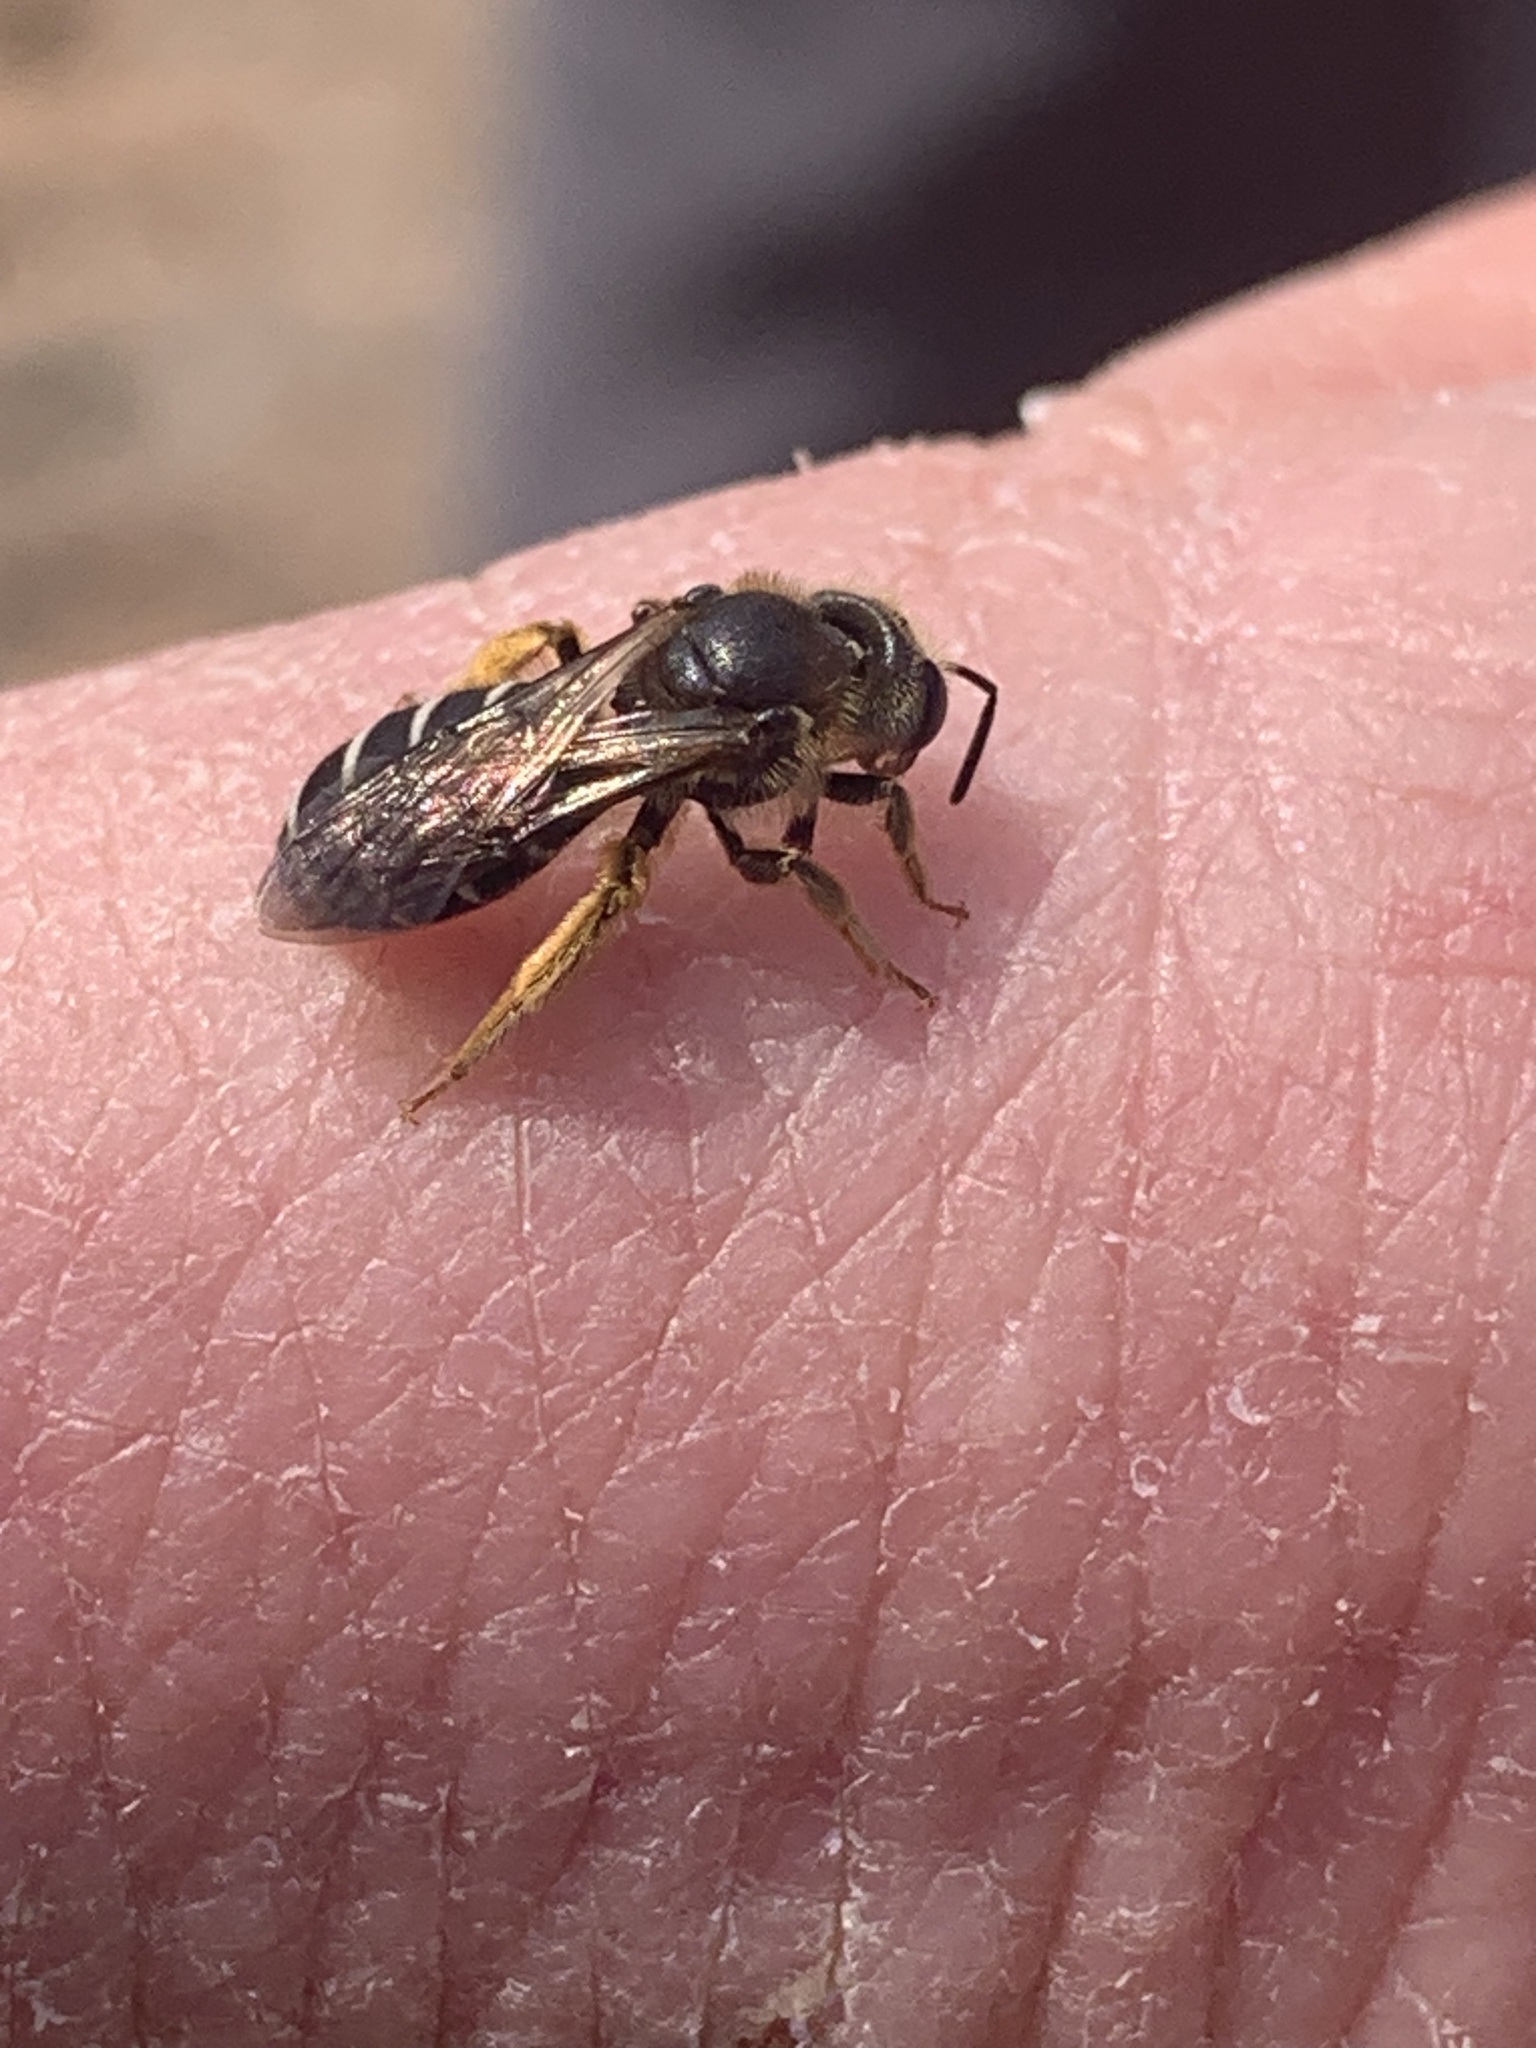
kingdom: Animalia
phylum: Arthropoda
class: Insecta
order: Hymenoptera
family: Halictidae
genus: Halictus
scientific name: Halictus rubicundus
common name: Orange-legged furrow bee
